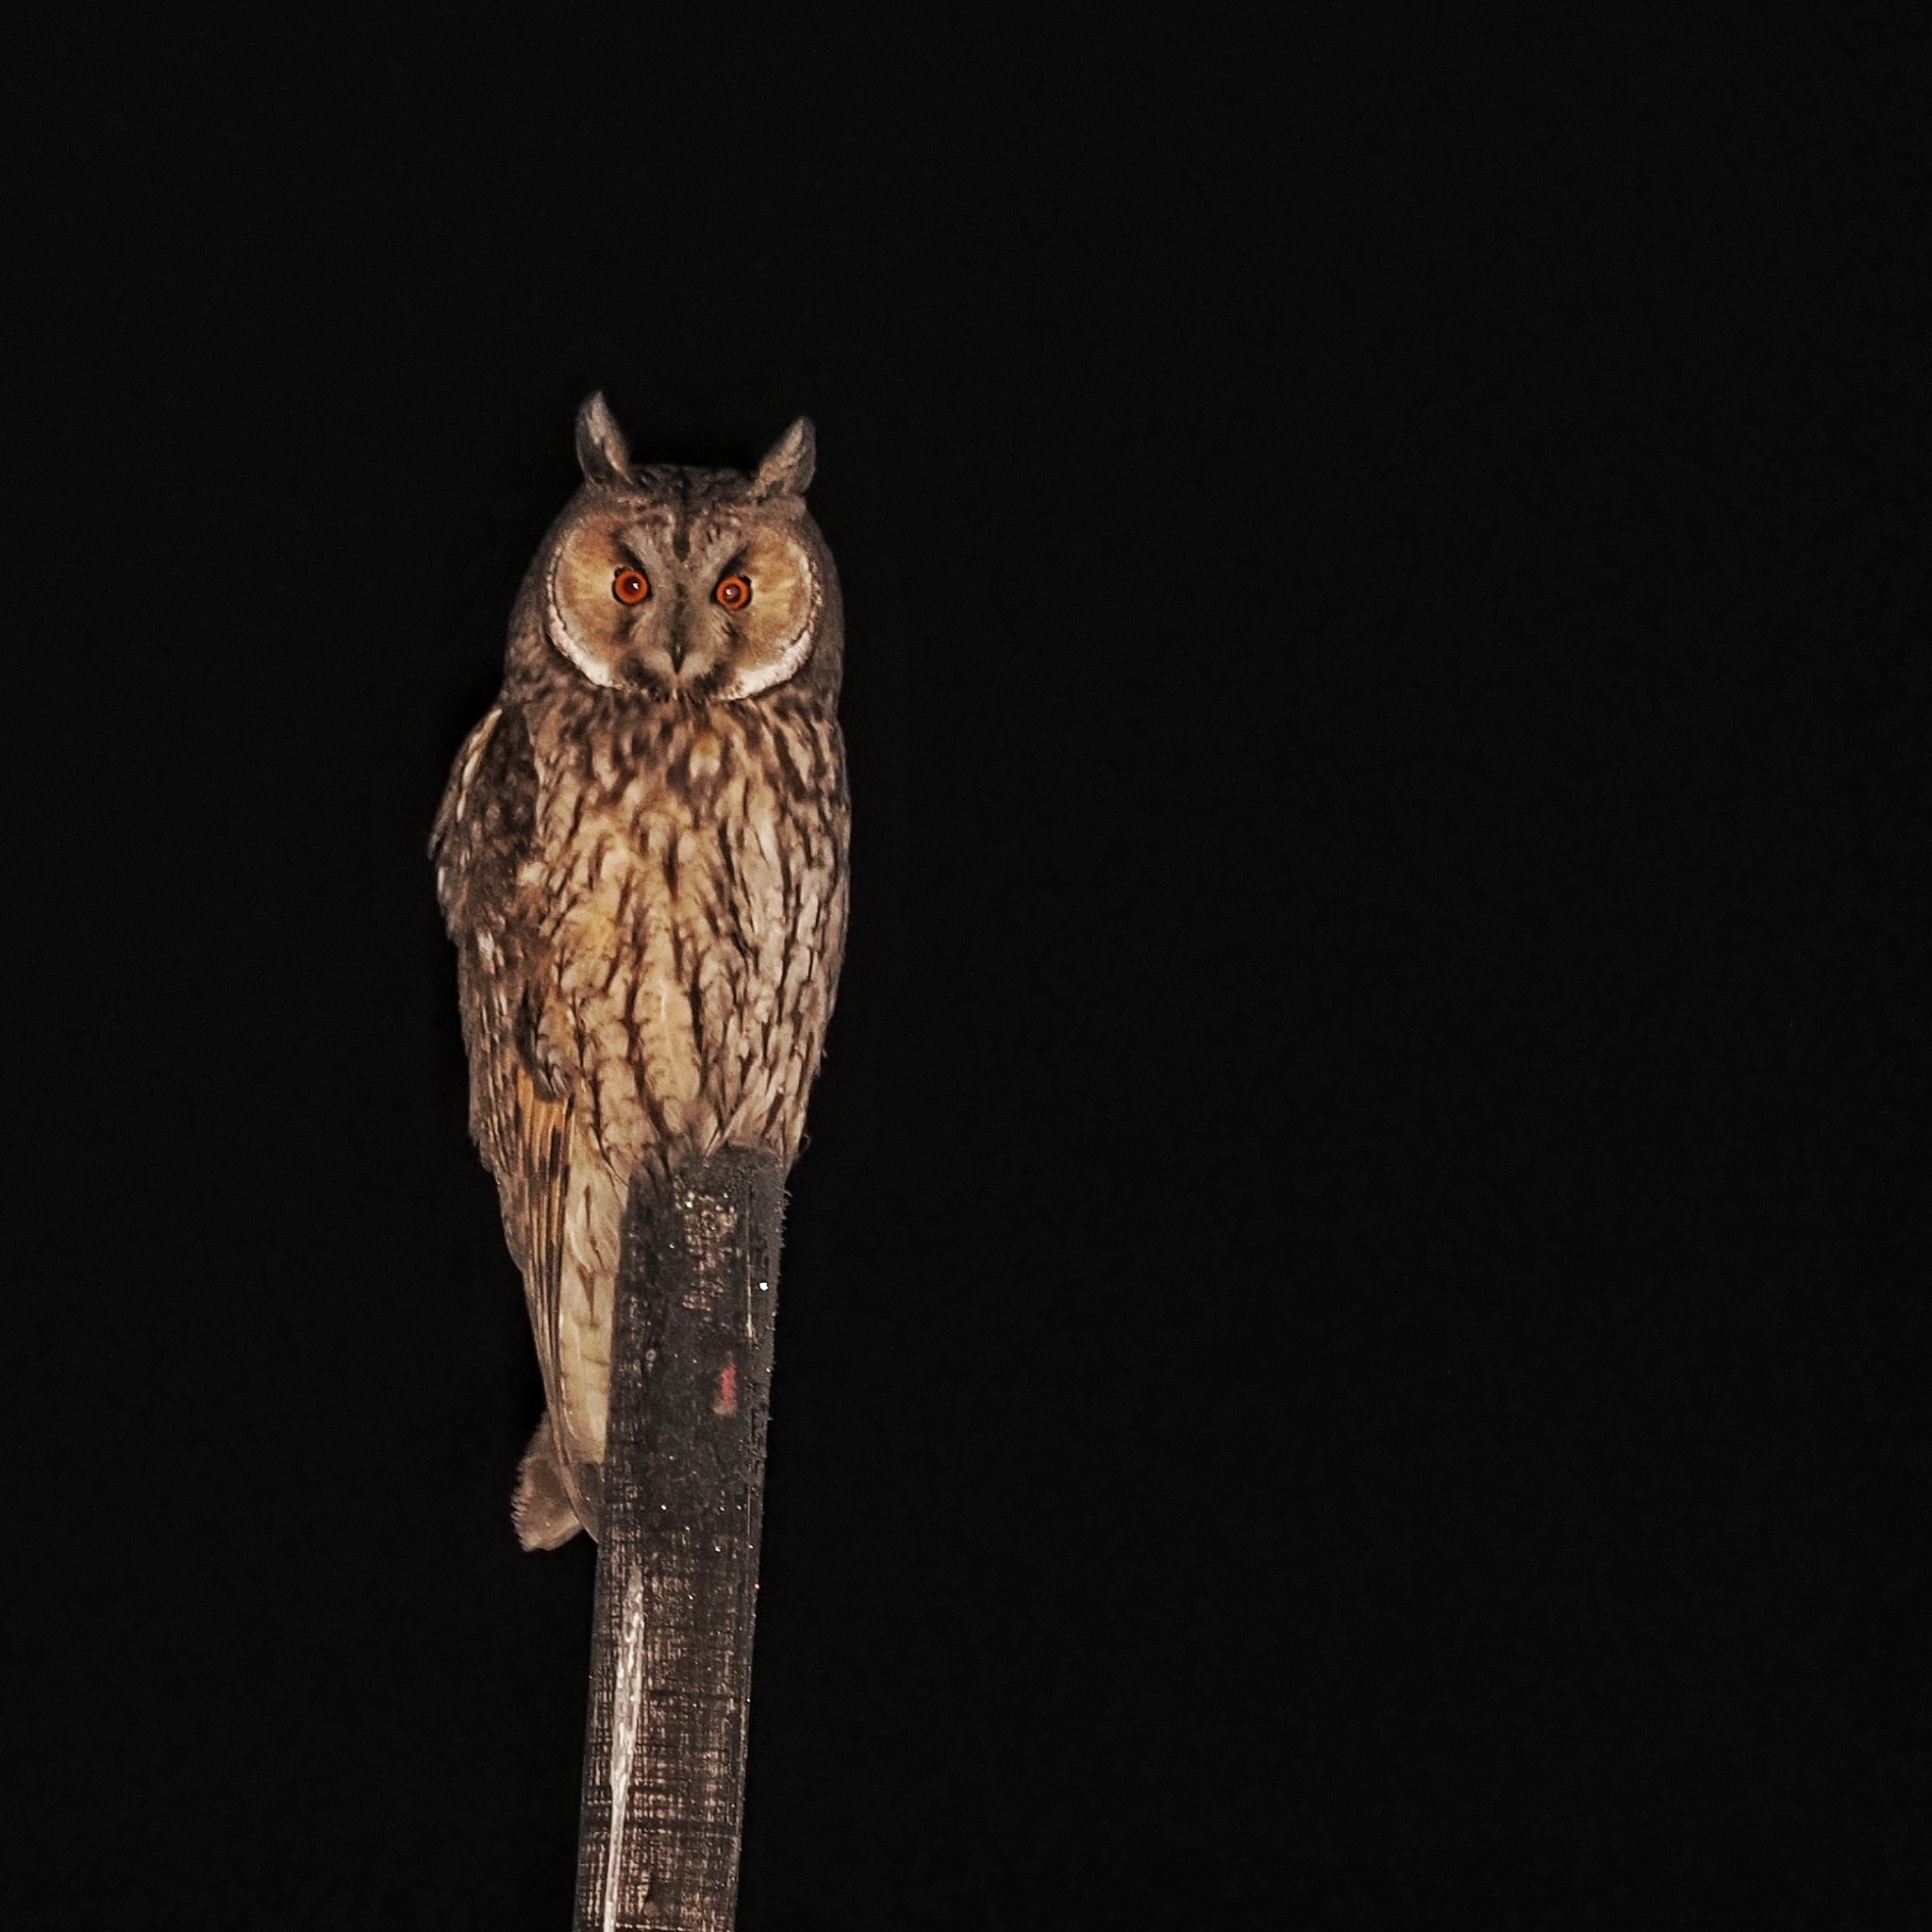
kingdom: Animalia
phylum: Chordata
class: Aves
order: Strigiformes
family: Strigidae
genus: Asio
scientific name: Asio otus
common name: Long-eared owl
